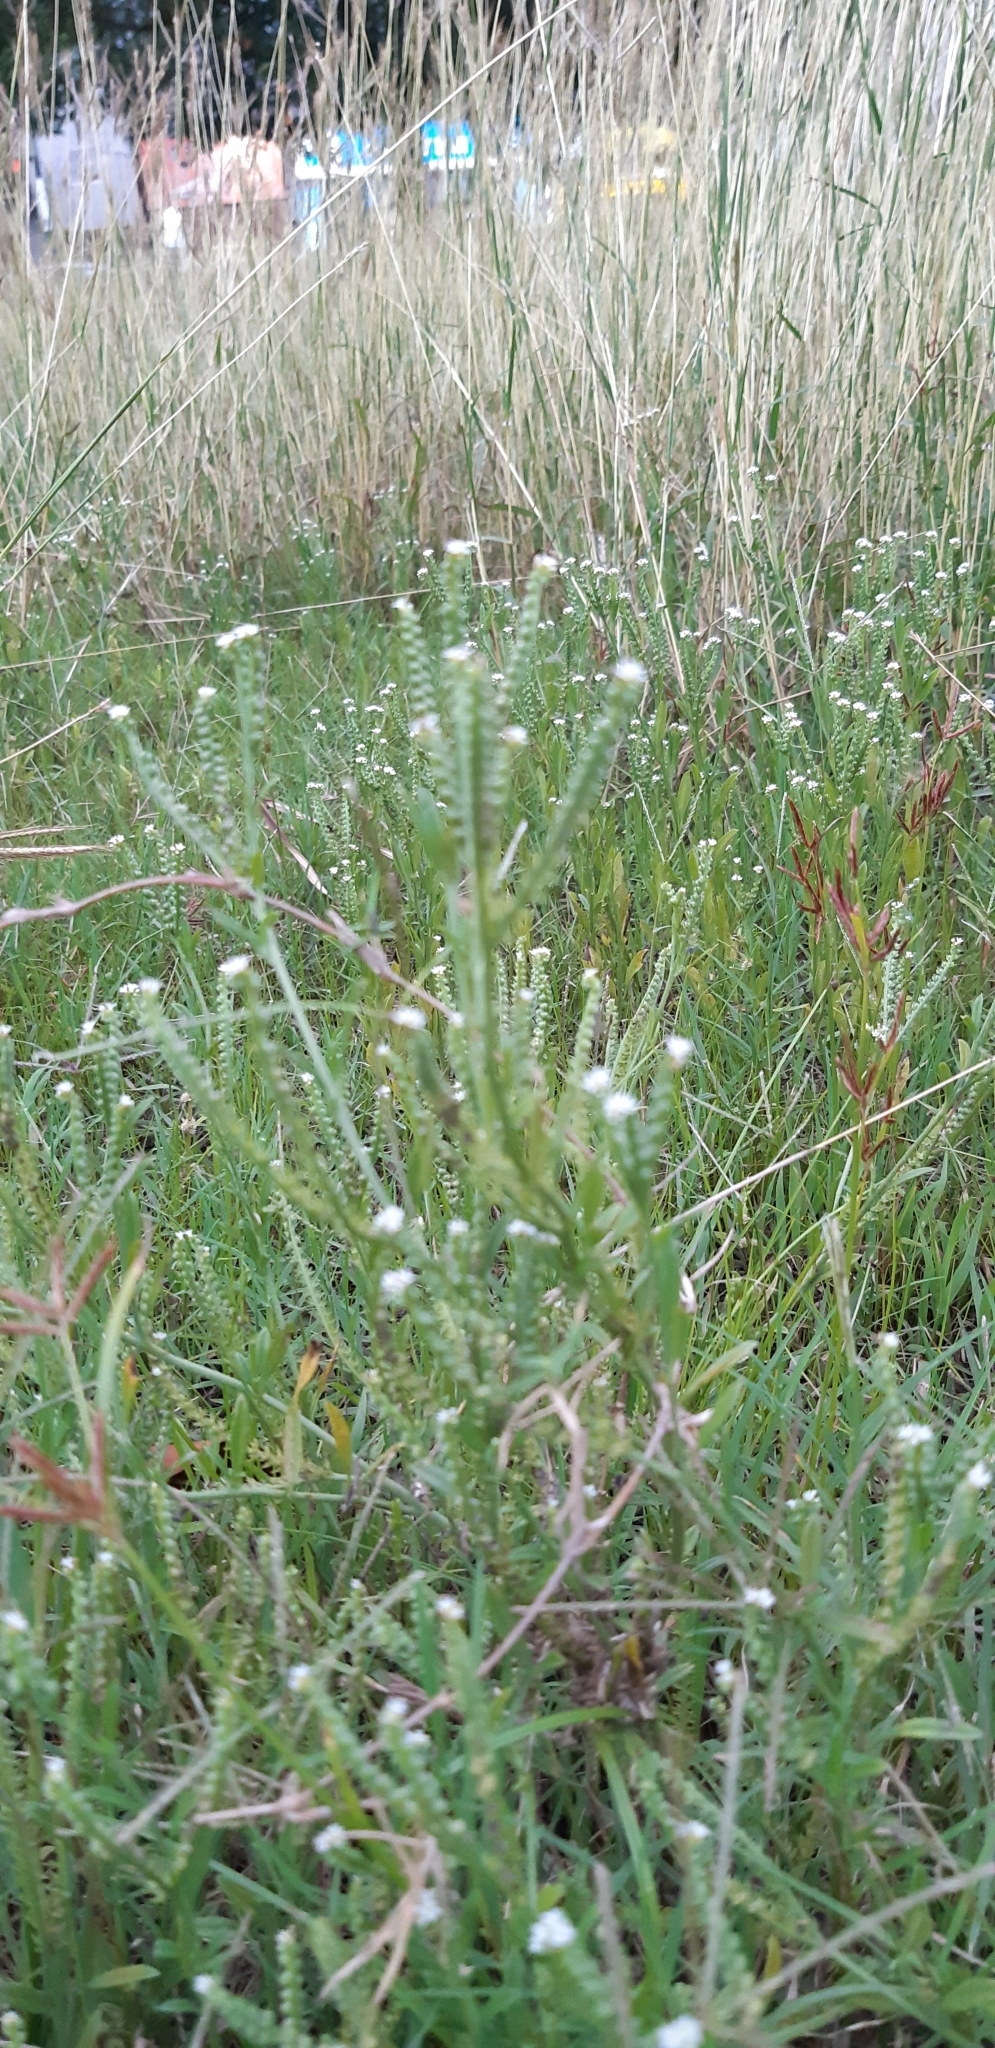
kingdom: Plantae
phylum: Tracheophyta
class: Magnoliopsida
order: Boraginales
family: Heliotropiaceae
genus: Euploca
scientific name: Euploca procumbens
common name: Fourspike heliotrope
